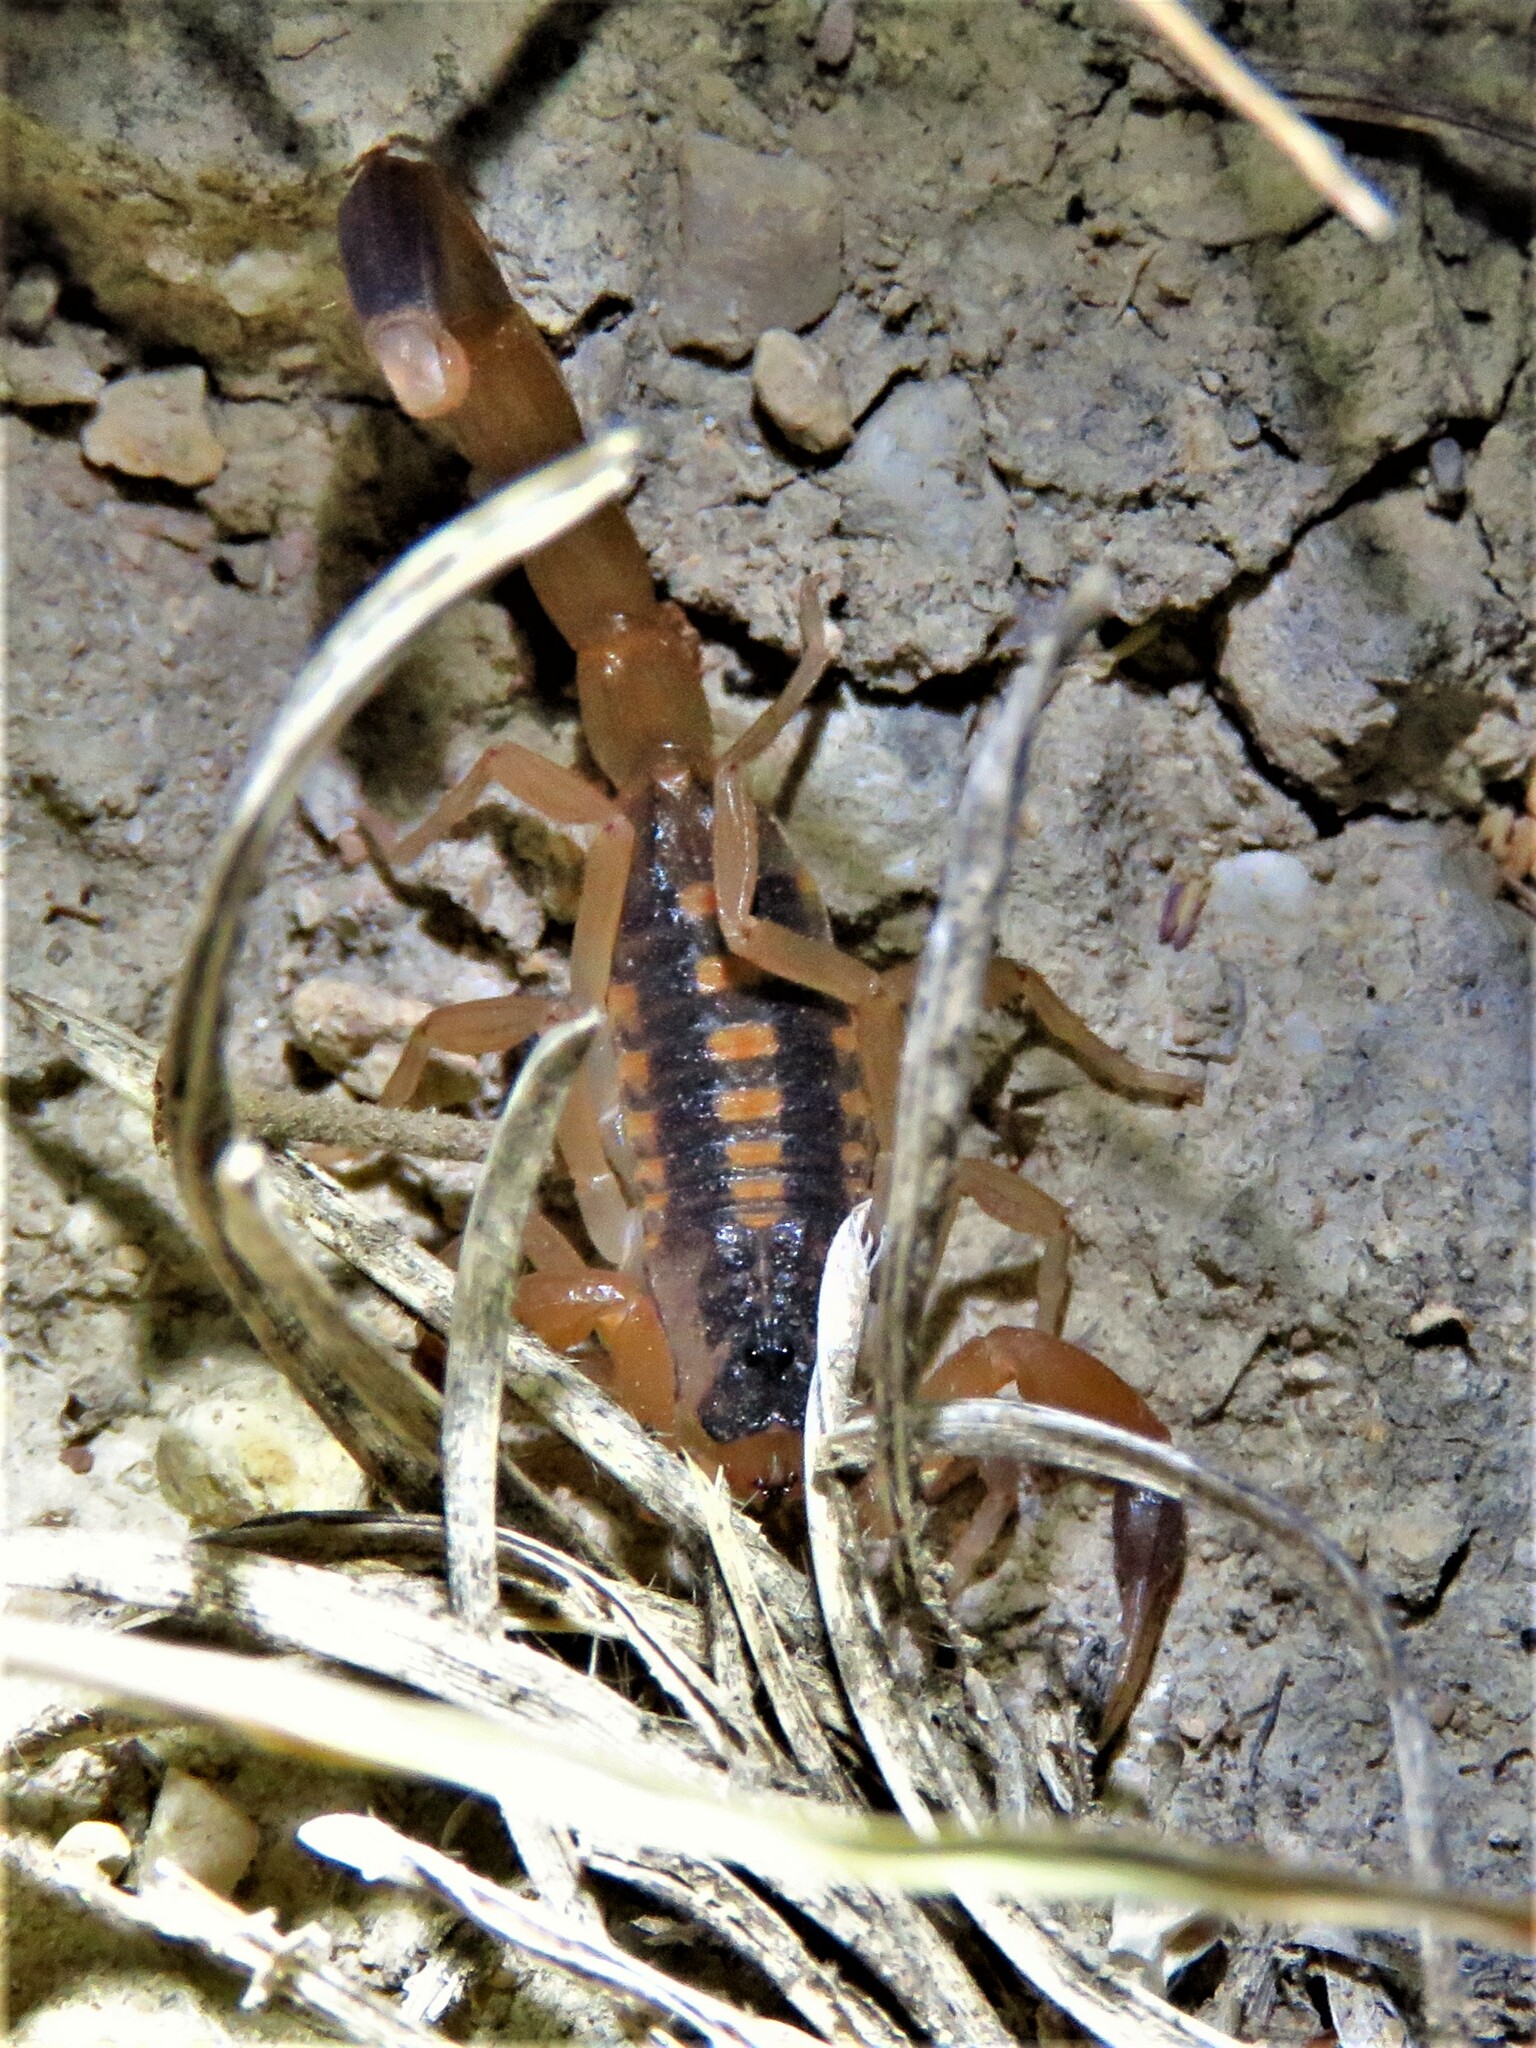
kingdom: Animalia
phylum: Arthropoda
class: Arachnida
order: Scorpiones
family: Buthidae
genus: Centruroides
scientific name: Centruroides vittatus
